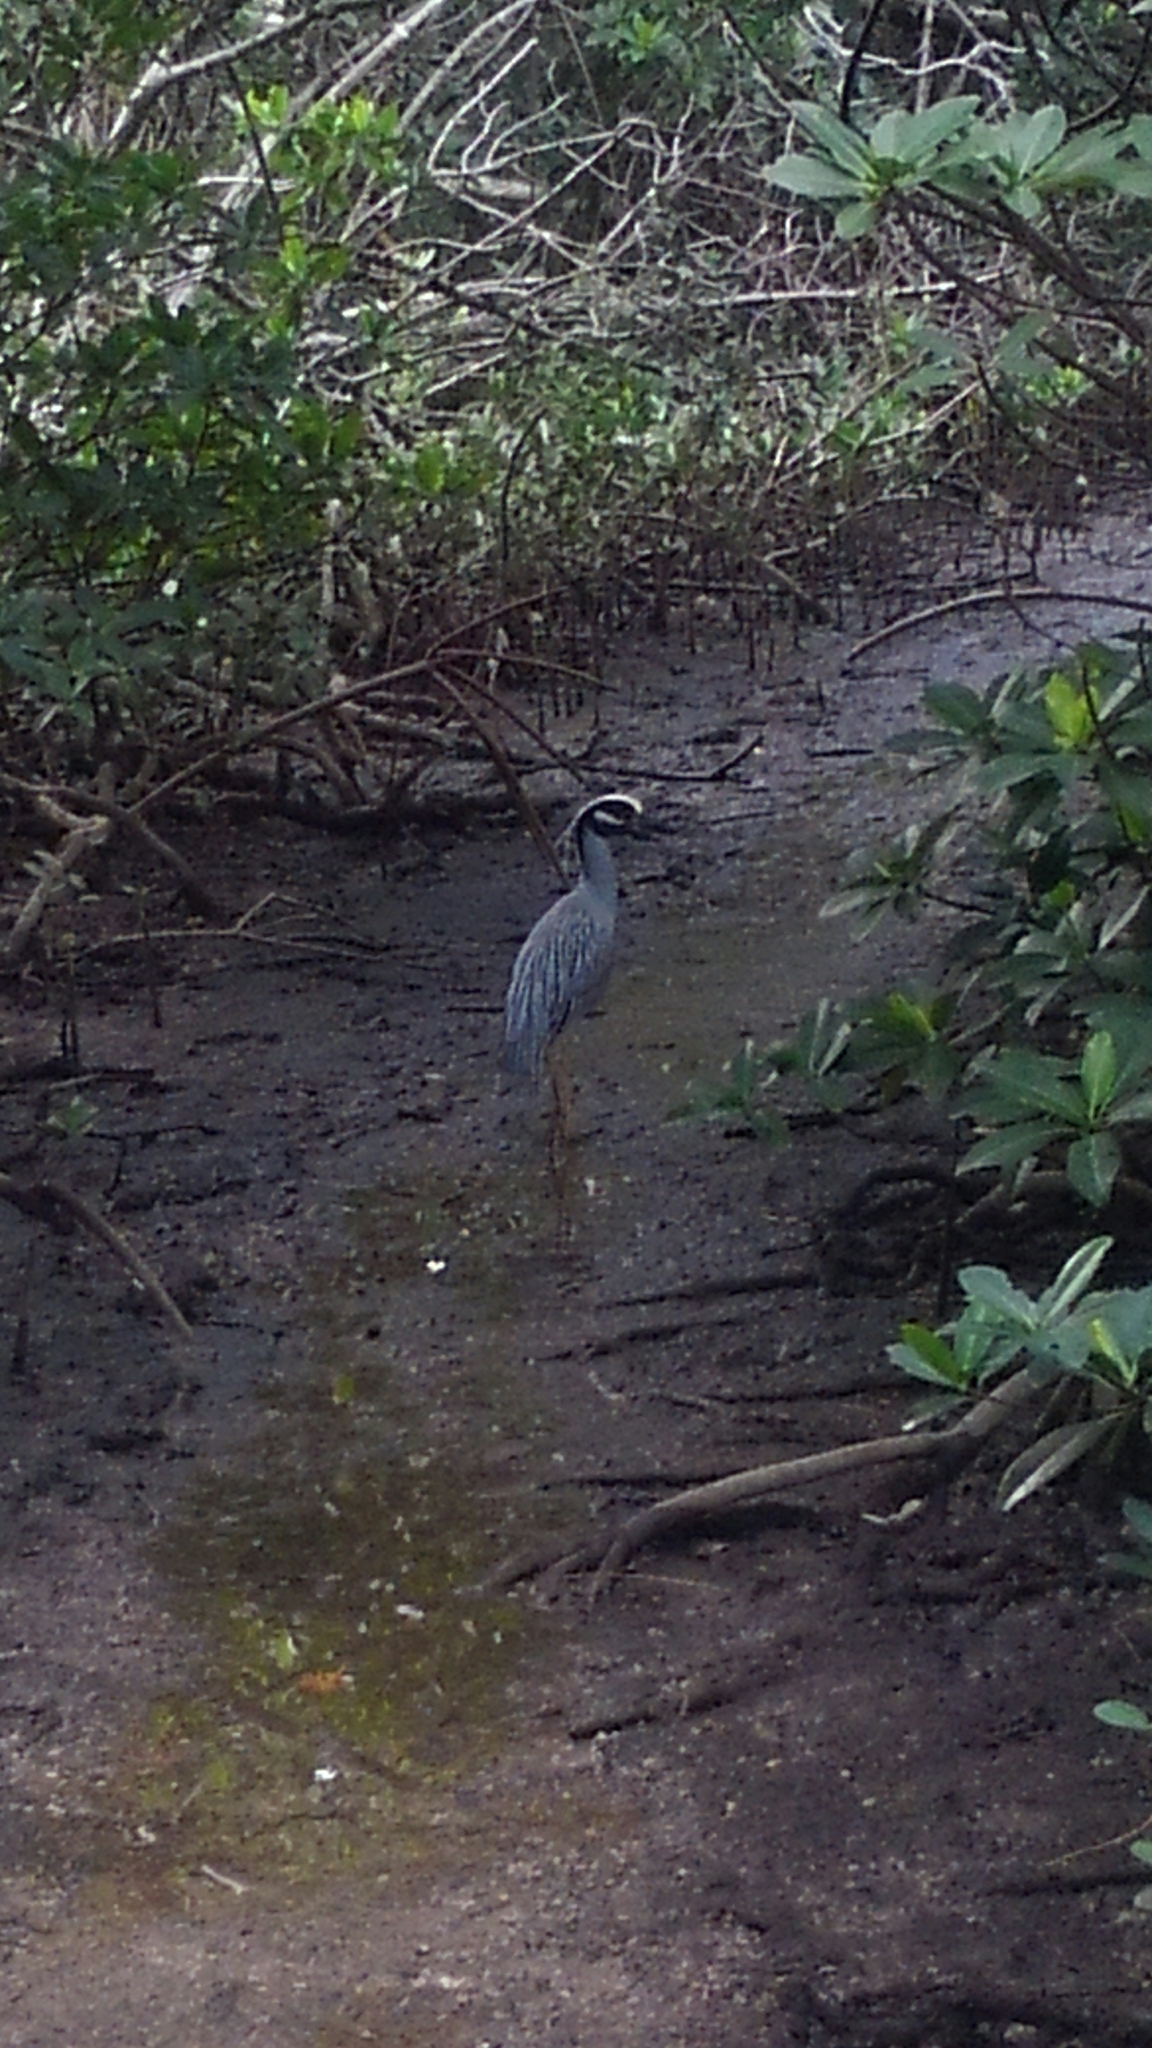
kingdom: Animalia
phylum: Chordata
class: Aves
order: Pelecaniformes
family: Ardeidae
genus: Nyctanassa
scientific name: Nyctanassa violacea
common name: Yellow-crowned night heron
